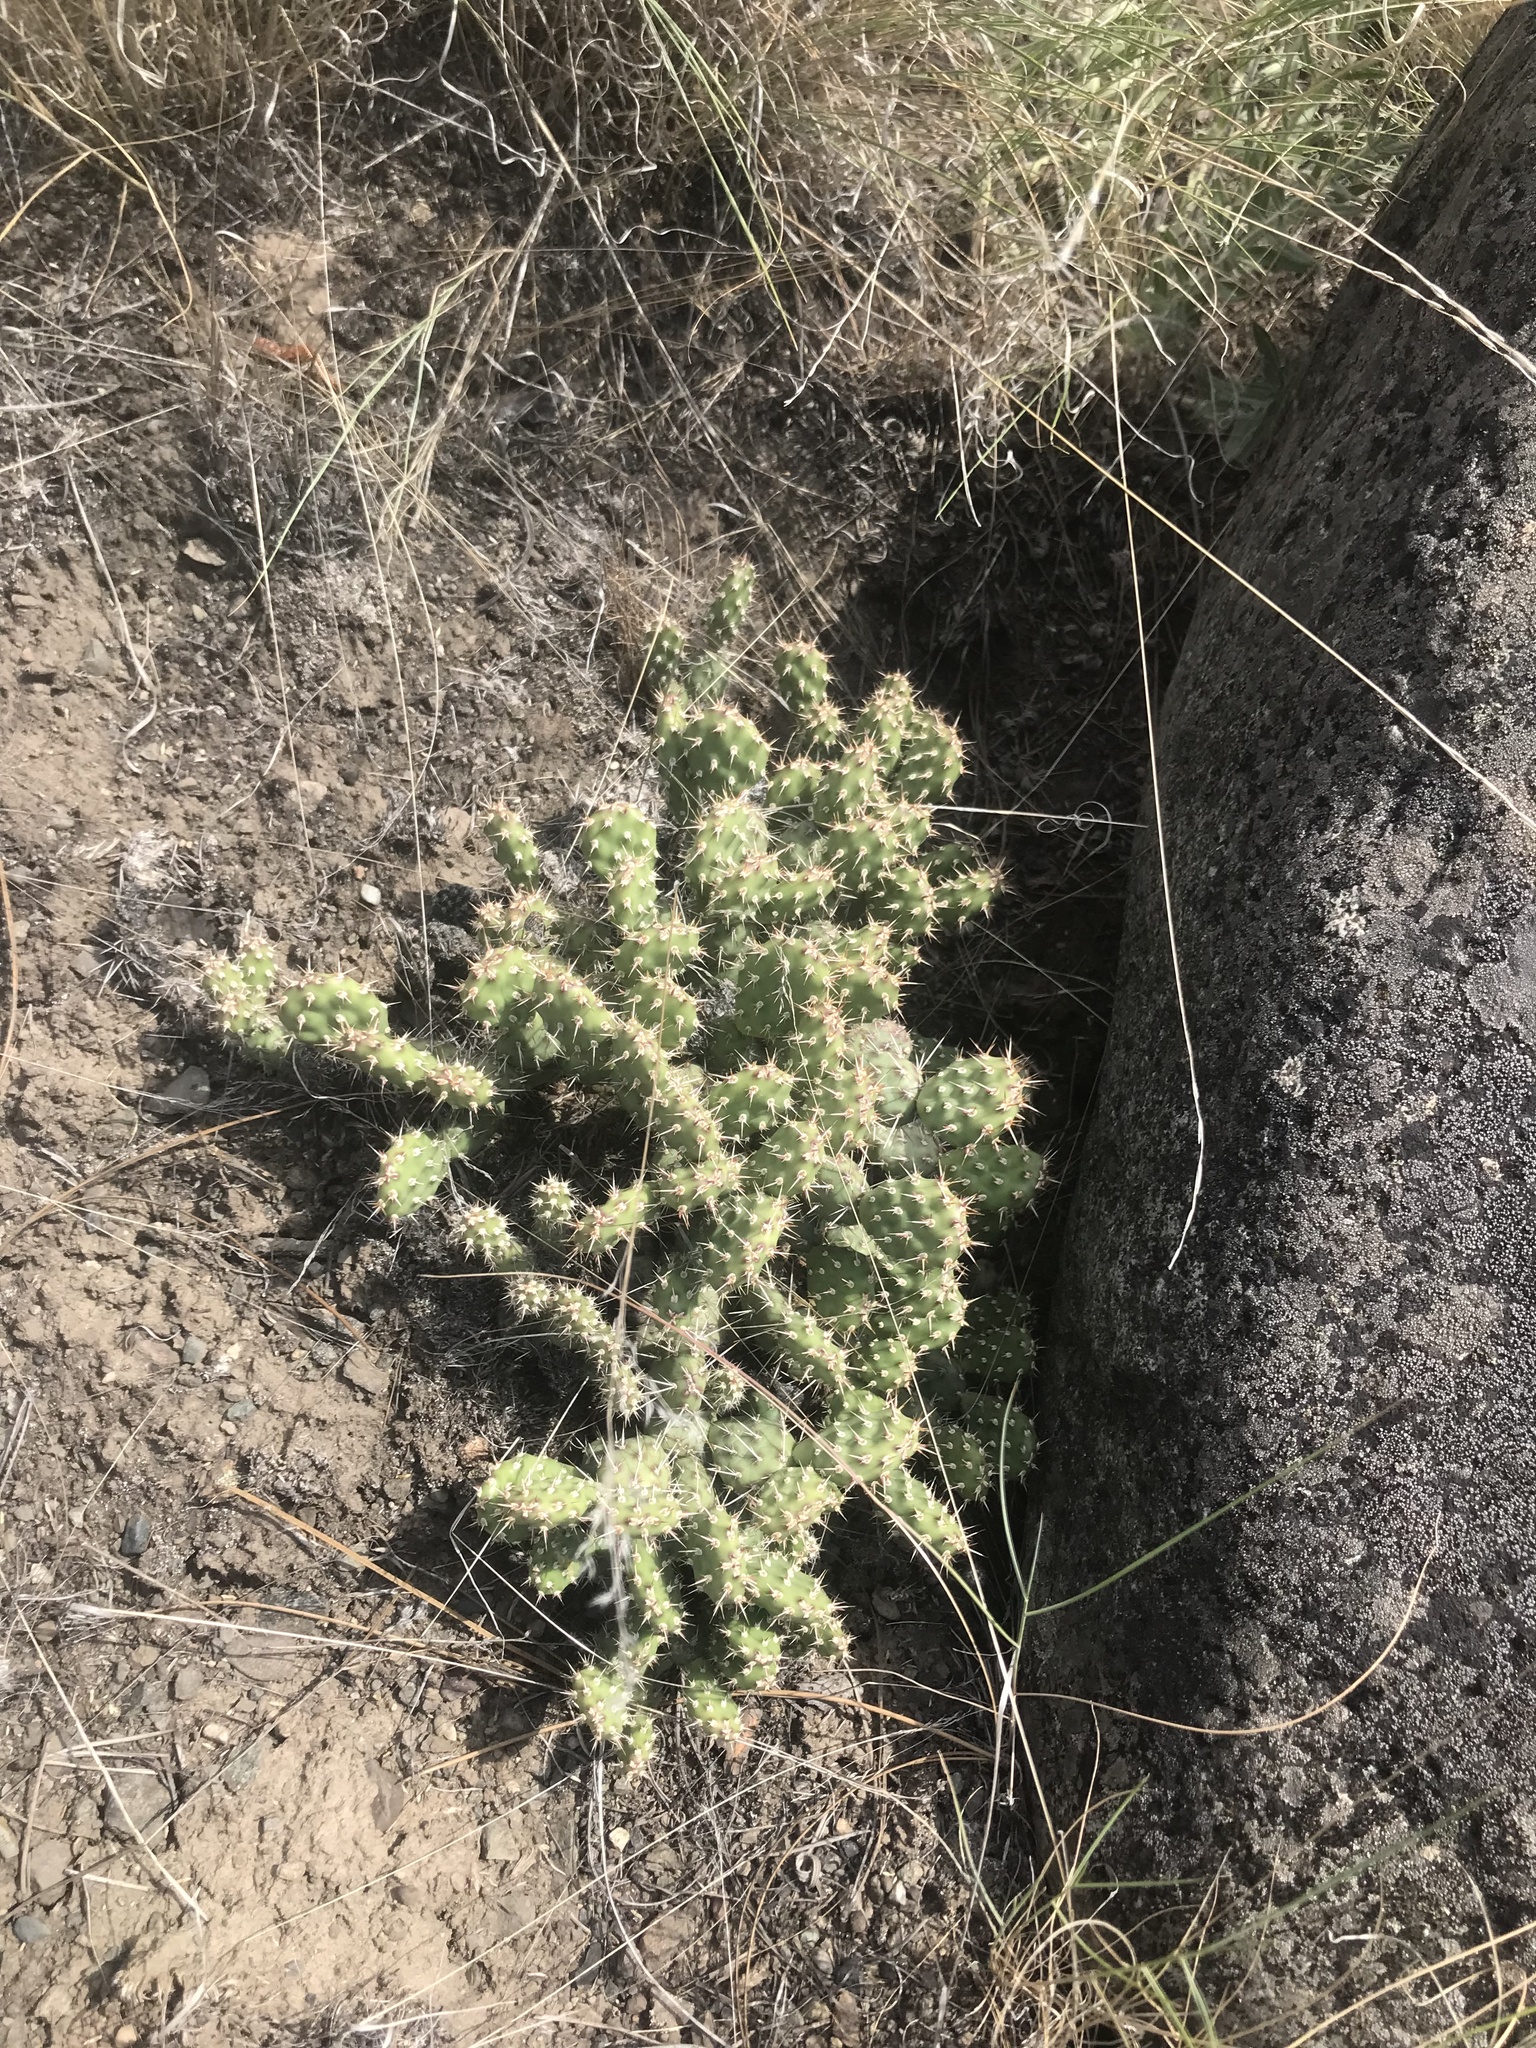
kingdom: Plantae
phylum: Tracheophyta
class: Magnoliopsida
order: Caryophyllales
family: Cactaceae
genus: Opuntia
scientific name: Opuntia fragilis
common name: Brittle cactus
